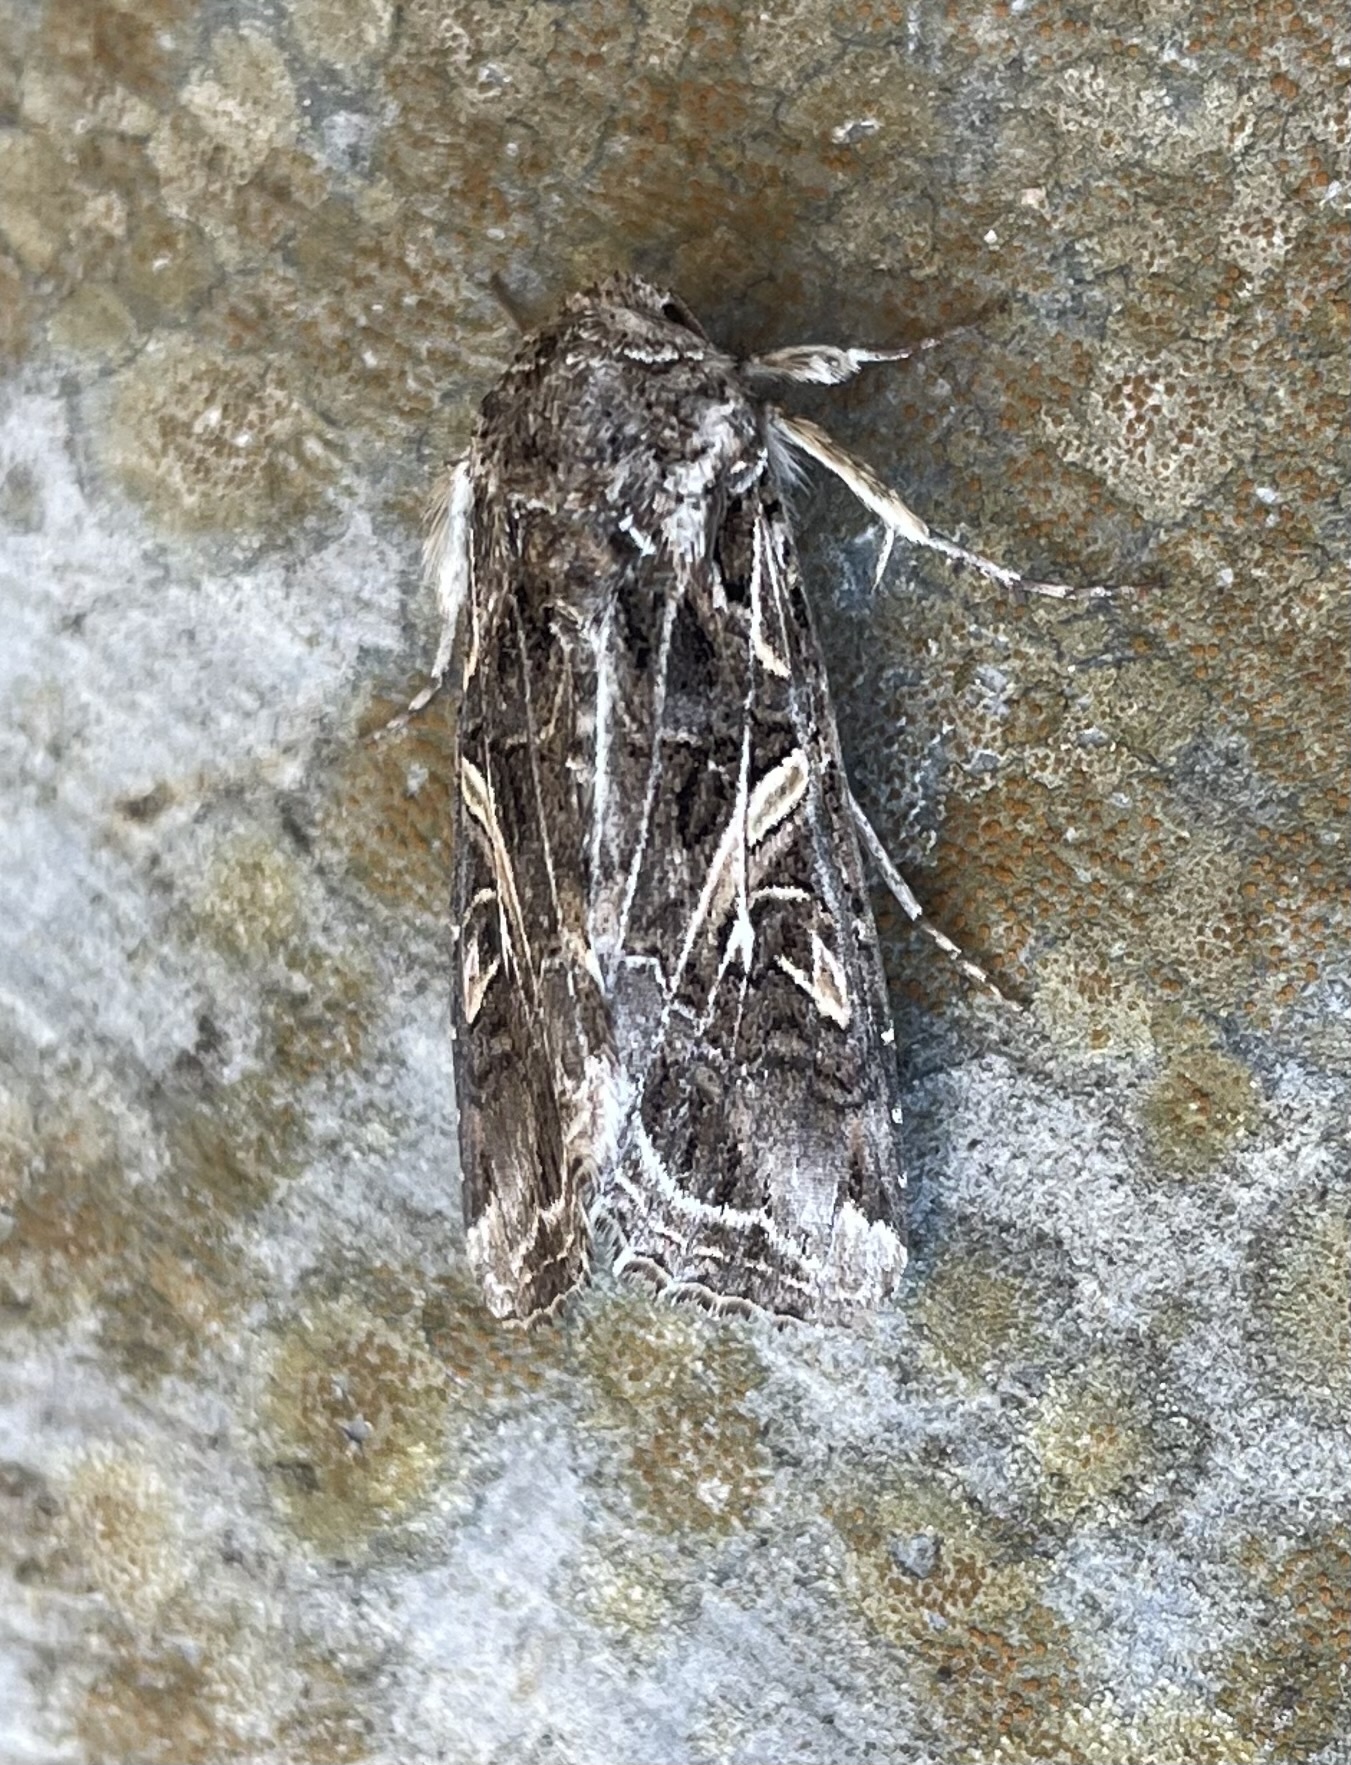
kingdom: Animalia
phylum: Arthropoda
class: Insecta
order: Lepidoptera
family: Noctuidae
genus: Spodoptera
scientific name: Spodoptera ornithogalli
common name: Yellow-striped armyworm
